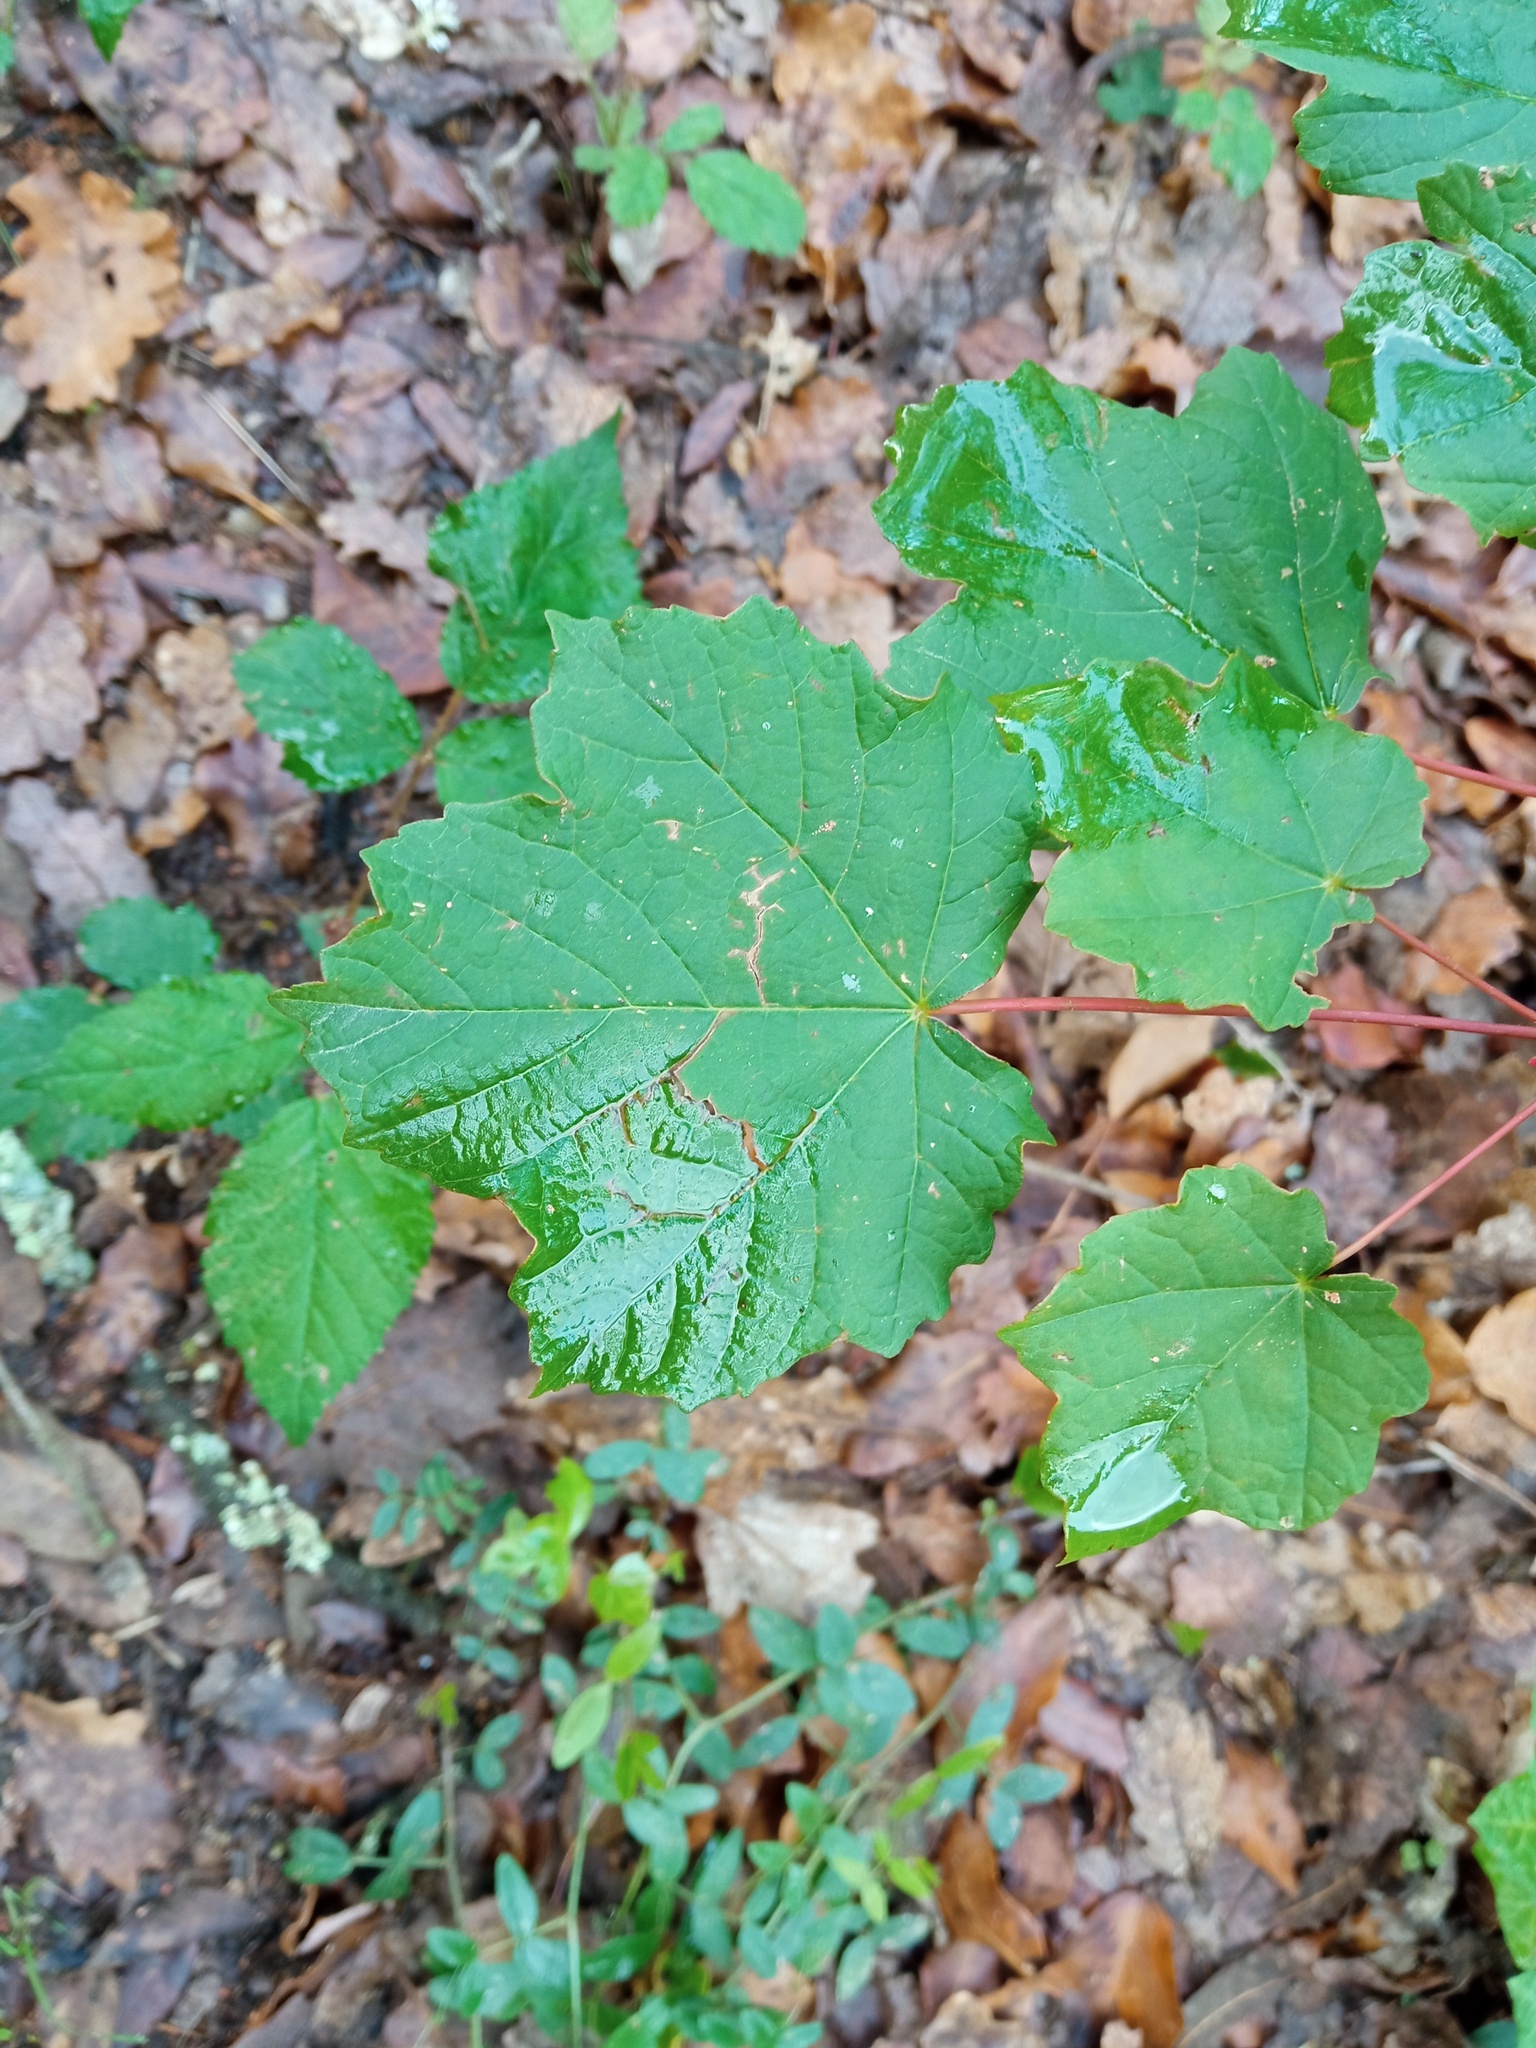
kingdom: Plantae
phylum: Tracheophyta
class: Magnoliopsida
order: Sapindales
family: Sapindaceae
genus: Acer
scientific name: Acer opalus
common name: Italian maple
